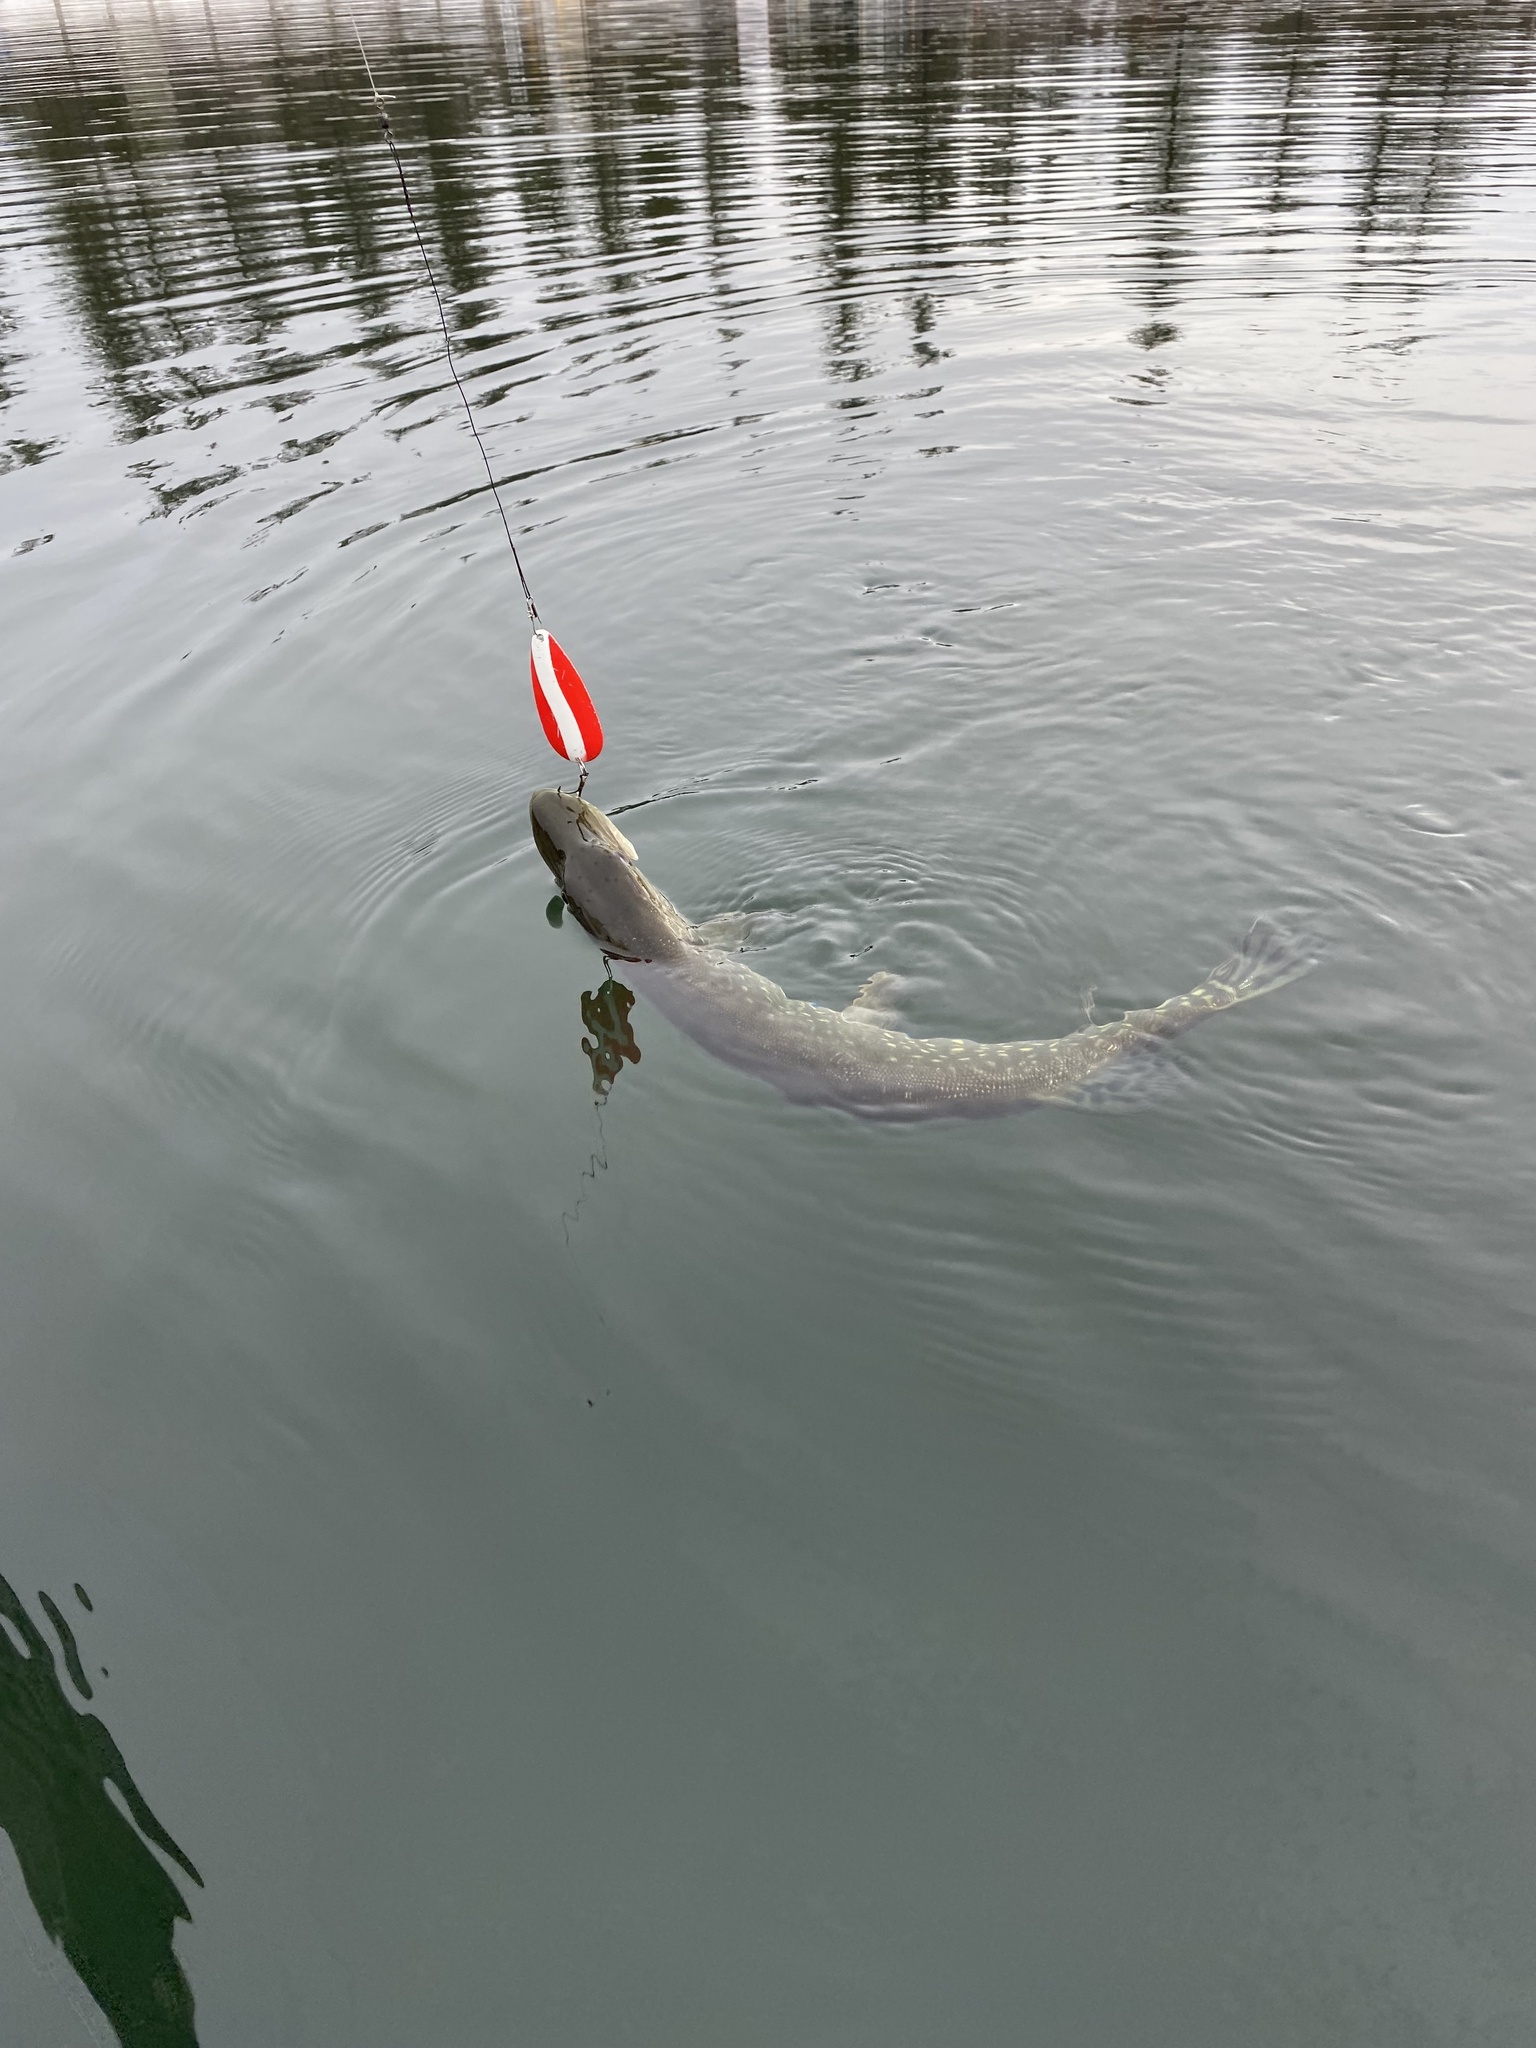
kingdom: Animalia
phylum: Chordata
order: Esociformes
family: Esocidae
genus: Esox
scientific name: Esox lucius
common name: Northern pike
